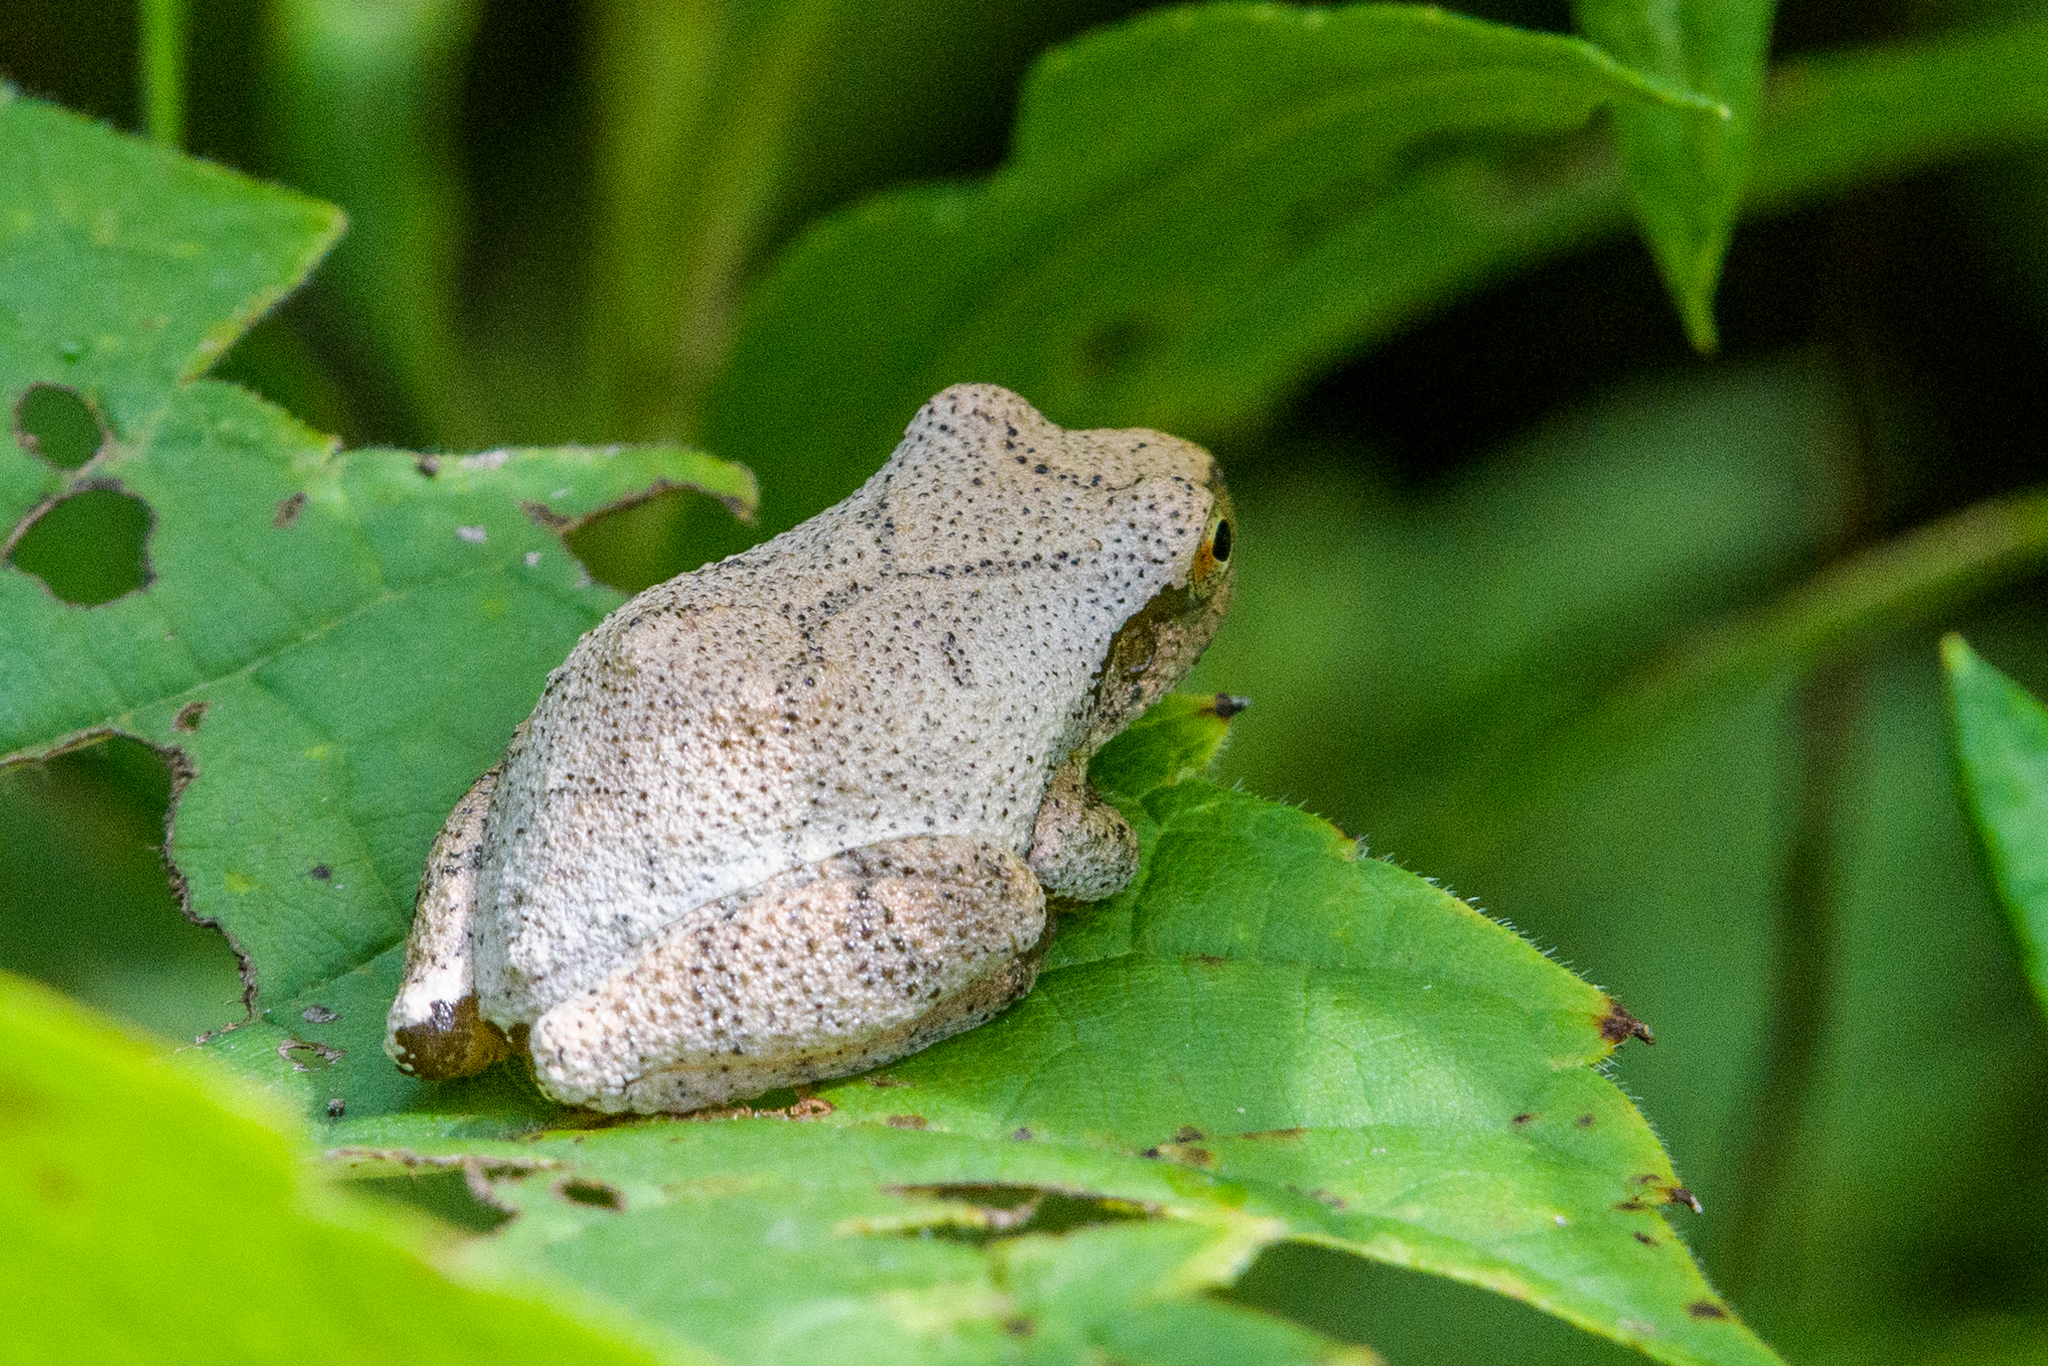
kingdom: Animalia
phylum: Chordata
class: Amphibia
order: Anura
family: Hylidae
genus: Pseudacris
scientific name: Pseudacris crucifer
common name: Spring peeper
